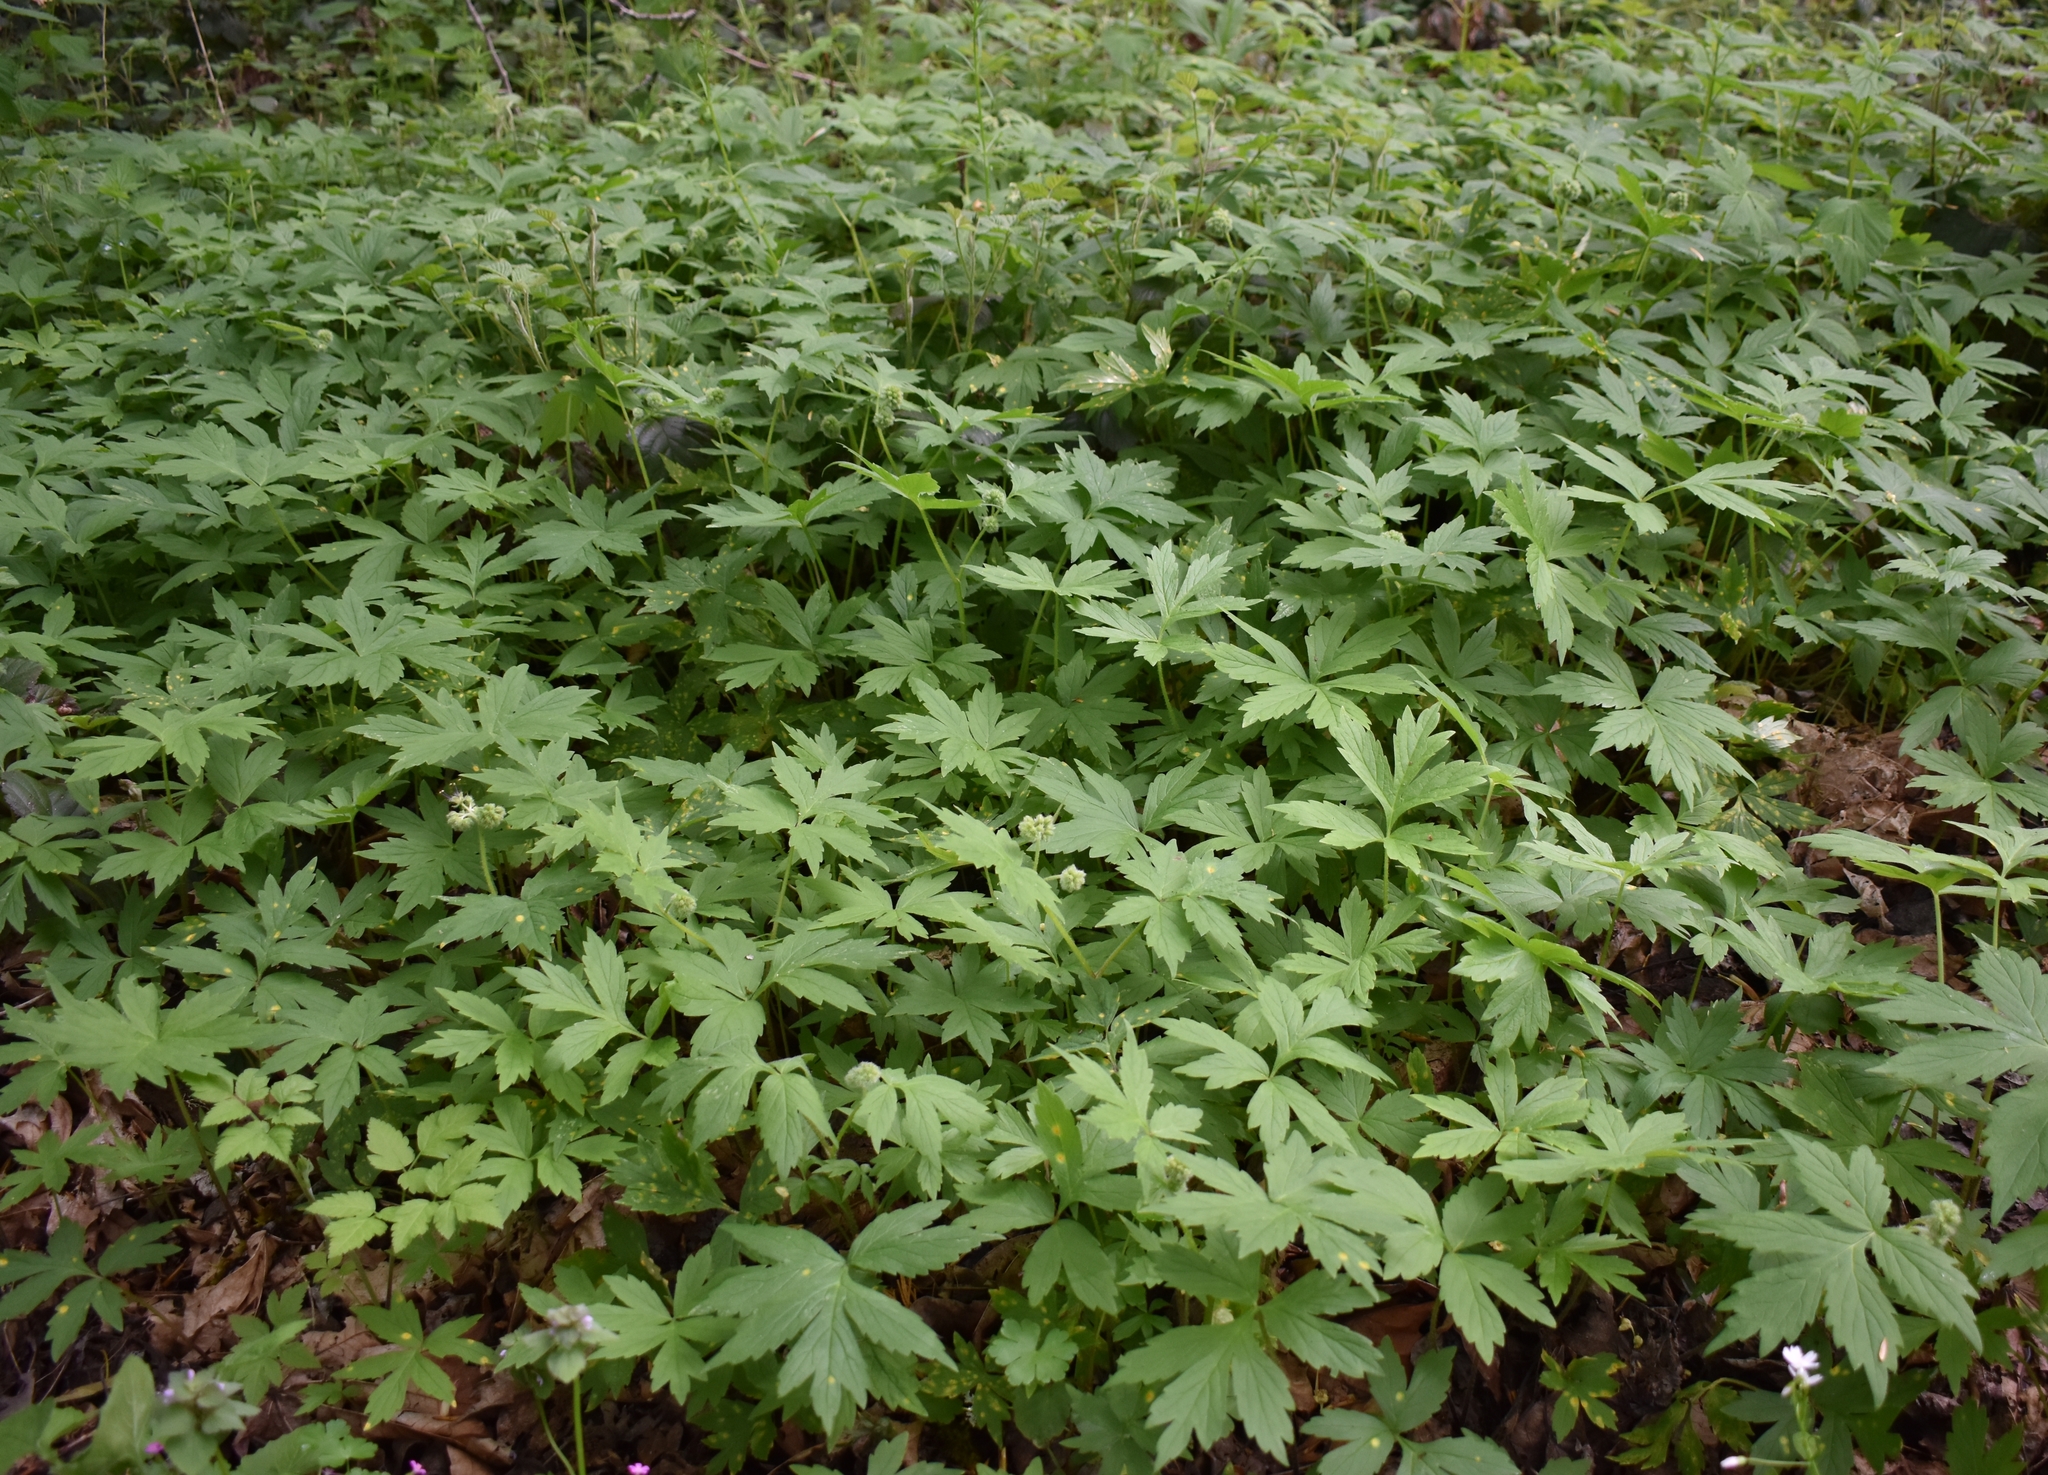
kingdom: Plantae
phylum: Tracheophyta
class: Magnoliopsida
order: Boraginales
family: Hydrophyllaceae
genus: Hydrophyllum
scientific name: Hydrophyllum tenuipes
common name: Pacific waterleaf
